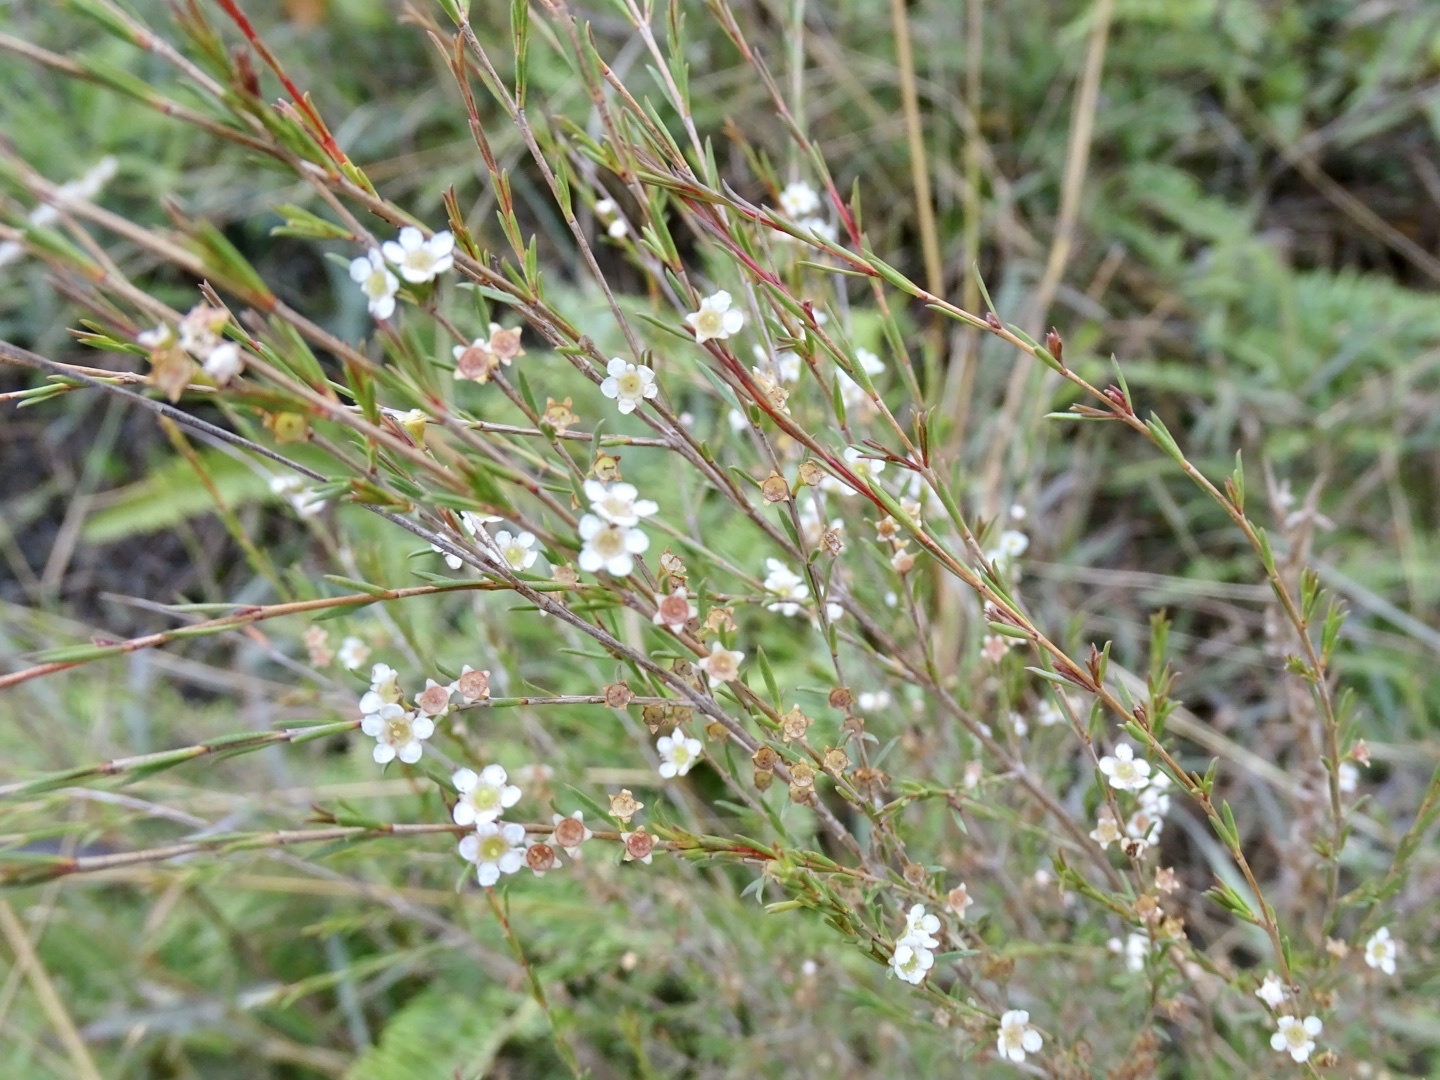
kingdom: Plantae
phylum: Tracheophyta
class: Magnoliopsida
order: Myrtales
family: Myrtaceae
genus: Baeckea
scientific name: Baeckea frutescens
